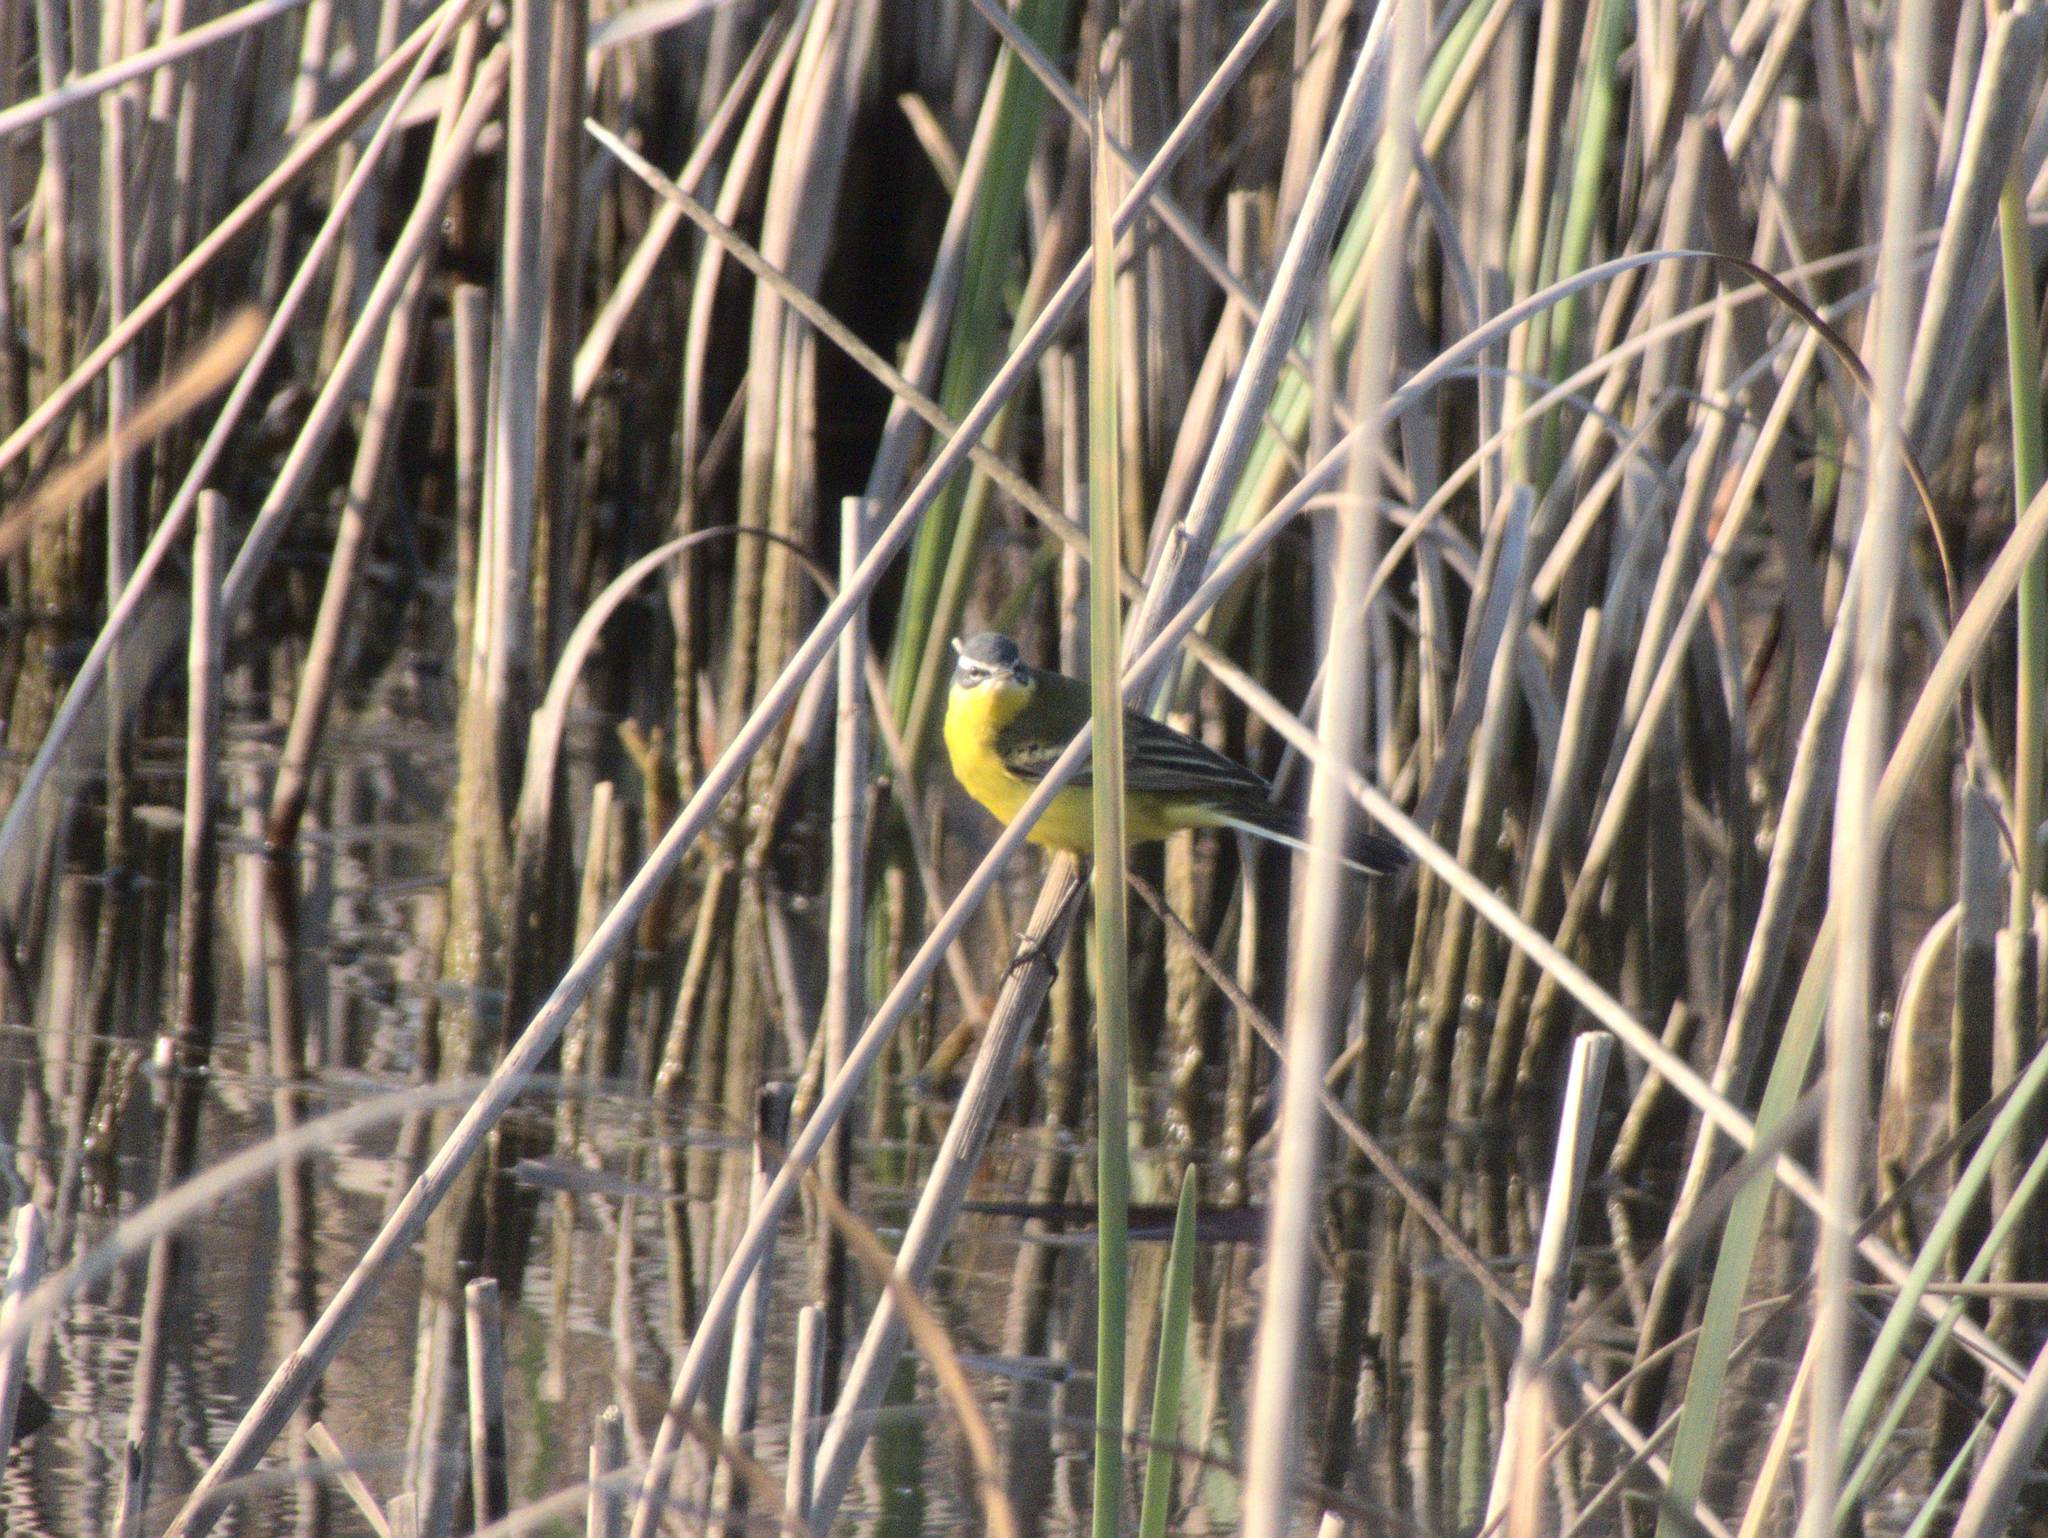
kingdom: Animalia
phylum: Chordata
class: Aves
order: Passeriformes
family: Motacillidae
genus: Motacilla
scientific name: Motacilla flava
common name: Western yellow wagtail
